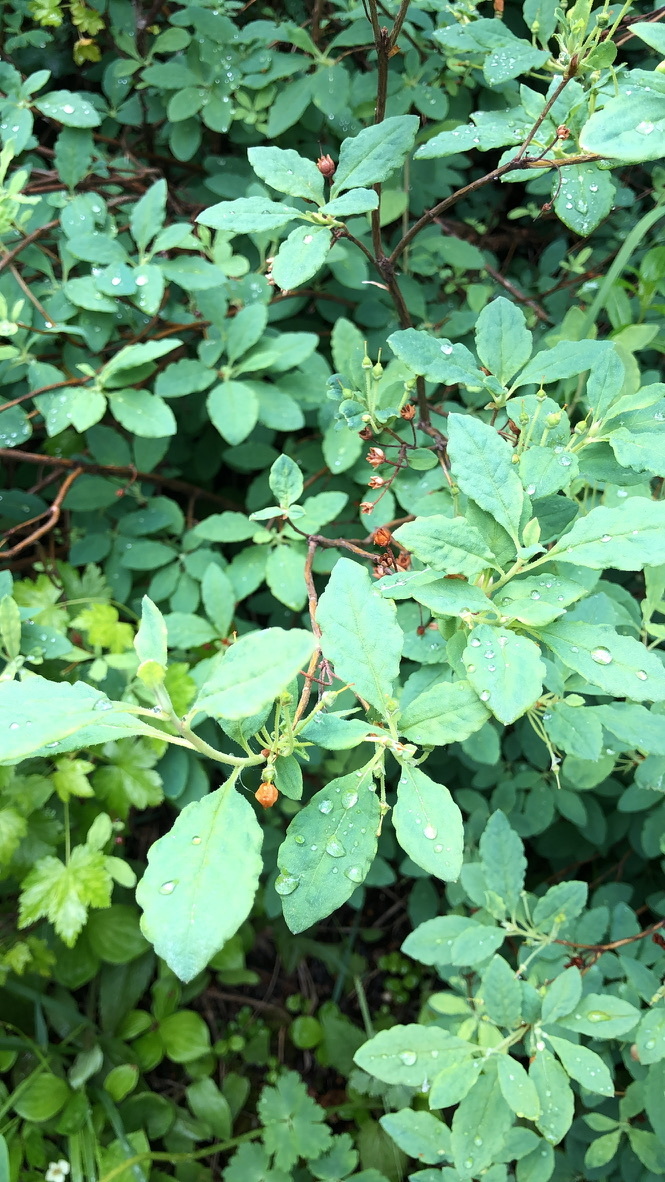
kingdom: Plantae
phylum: Tracheophyta
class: Magnoliopsida
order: Ericales
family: Ericaceae
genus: Rhododendron
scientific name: Rhododendron menziesii
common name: Pacific menziesia
